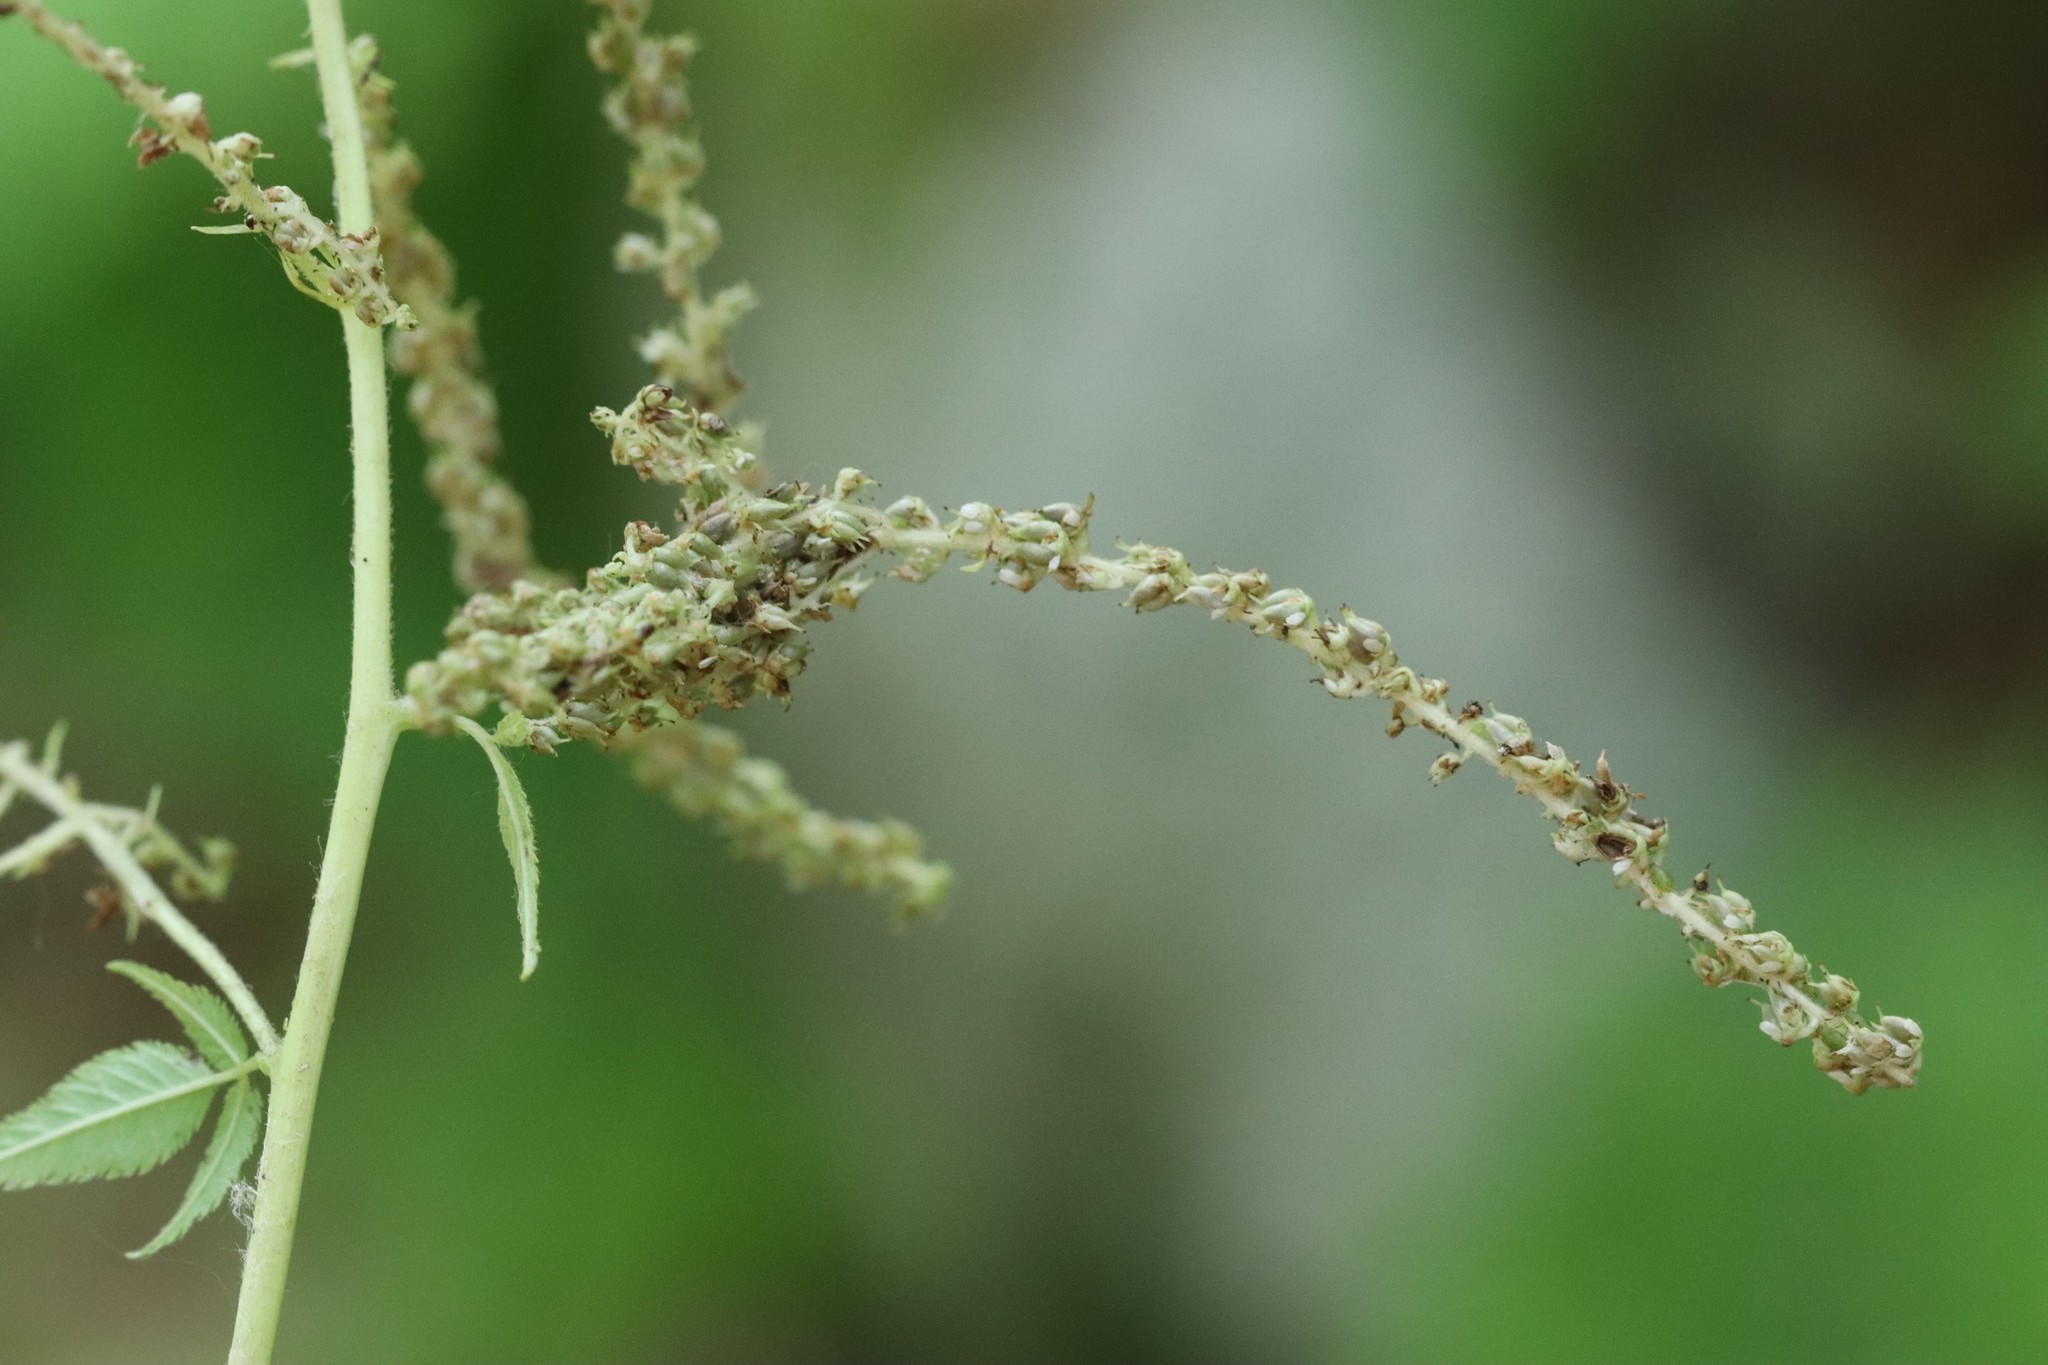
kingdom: Plantae
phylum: Tracheophyta
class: Magnoliopsida
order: Rosales
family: Rosaceae
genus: Aruncus
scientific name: Aruncus dioicus
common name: Buck's-beard
